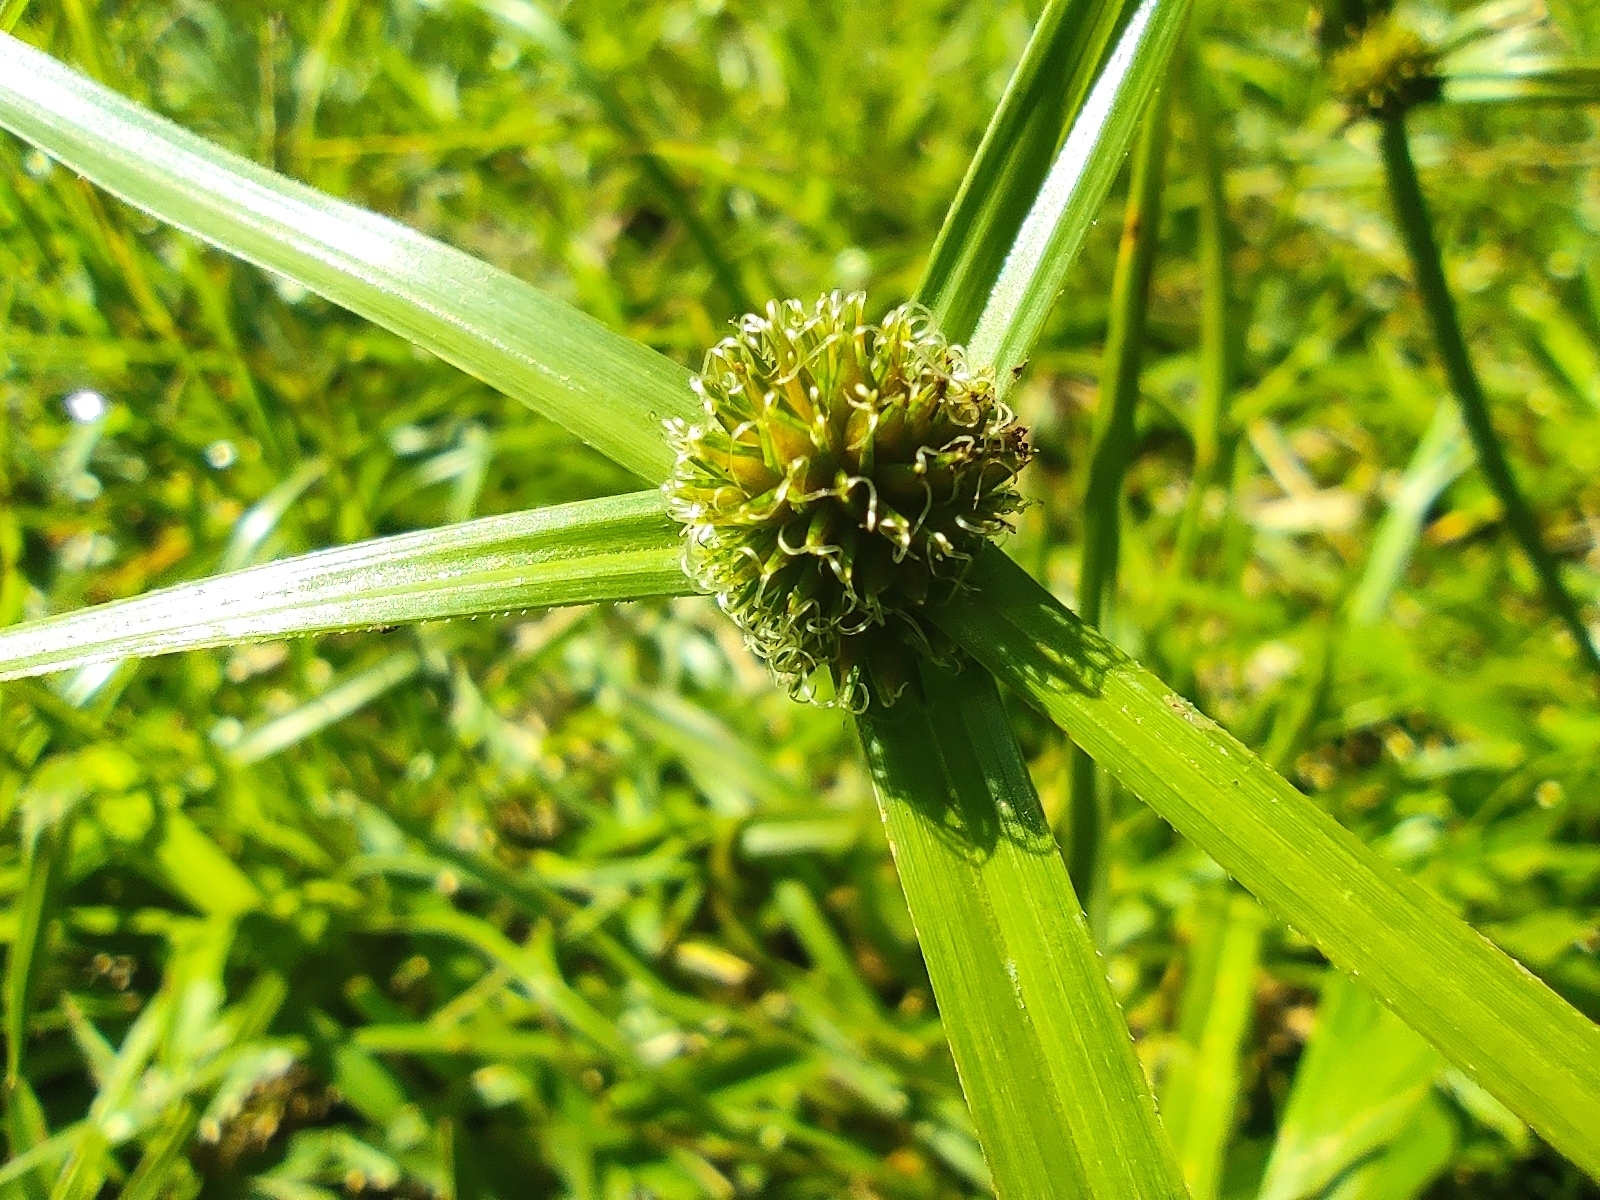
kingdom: Plantae
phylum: Tracheophyta
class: Liliopsida
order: Poales
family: Cyperaceae
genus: Cyperus
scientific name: Cyperus aromaticus
